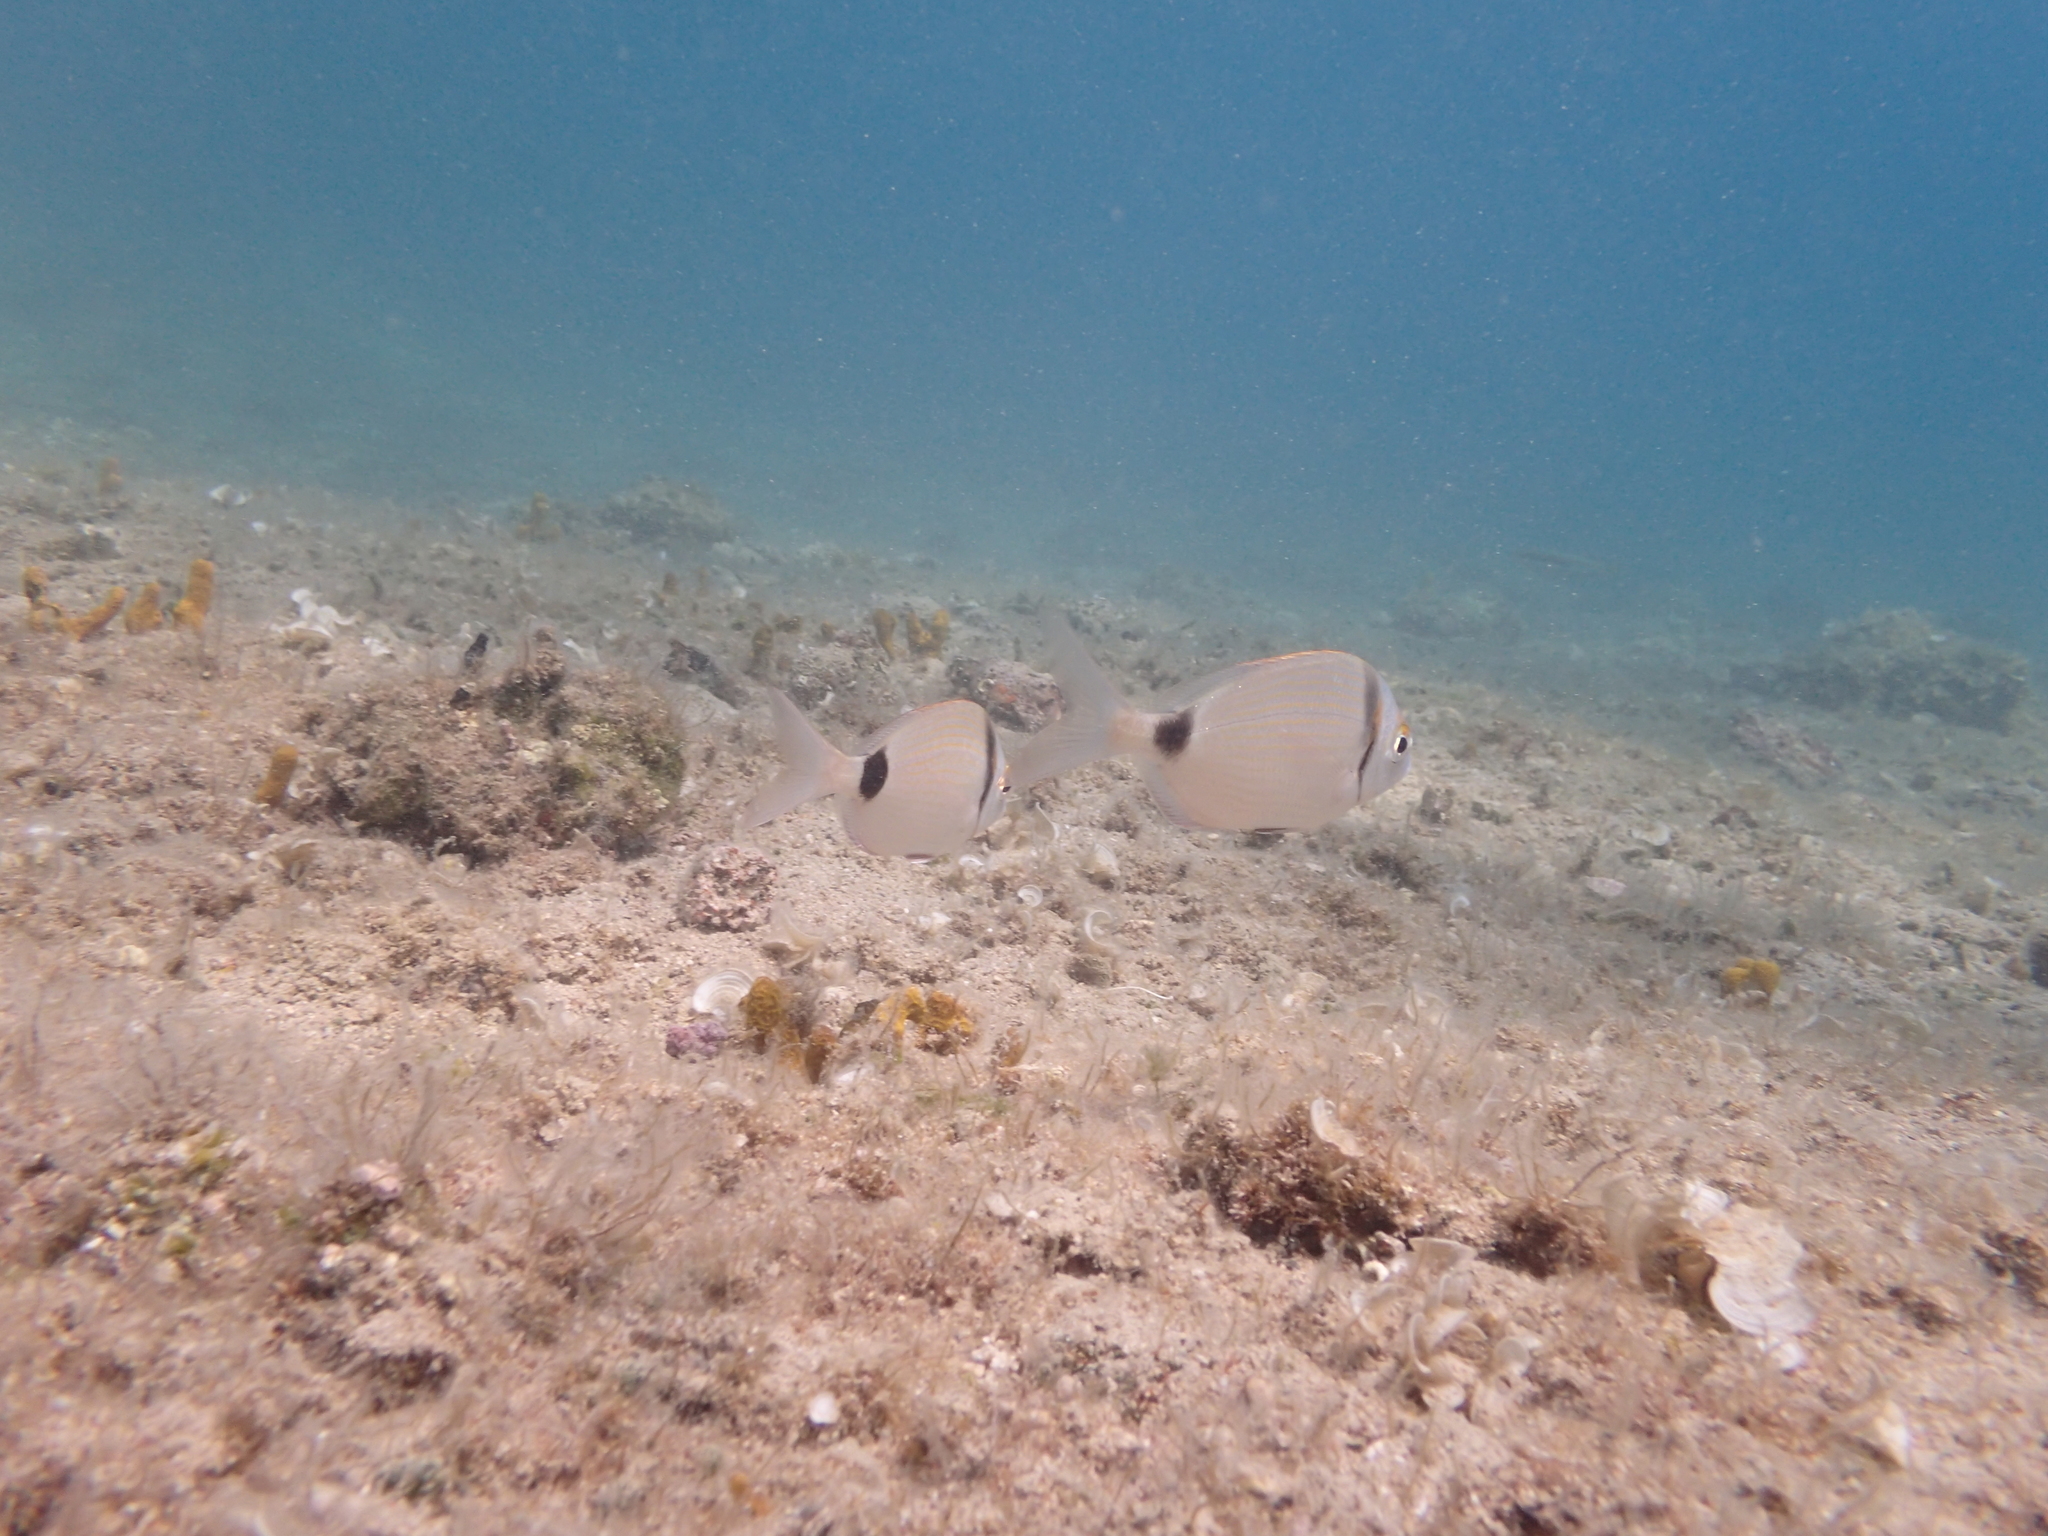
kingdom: Animalia
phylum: Chordata
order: Perciformes
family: Sparidae
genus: Diplodus
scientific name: Diplodus vulgaris
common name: Common two-banded seabream
